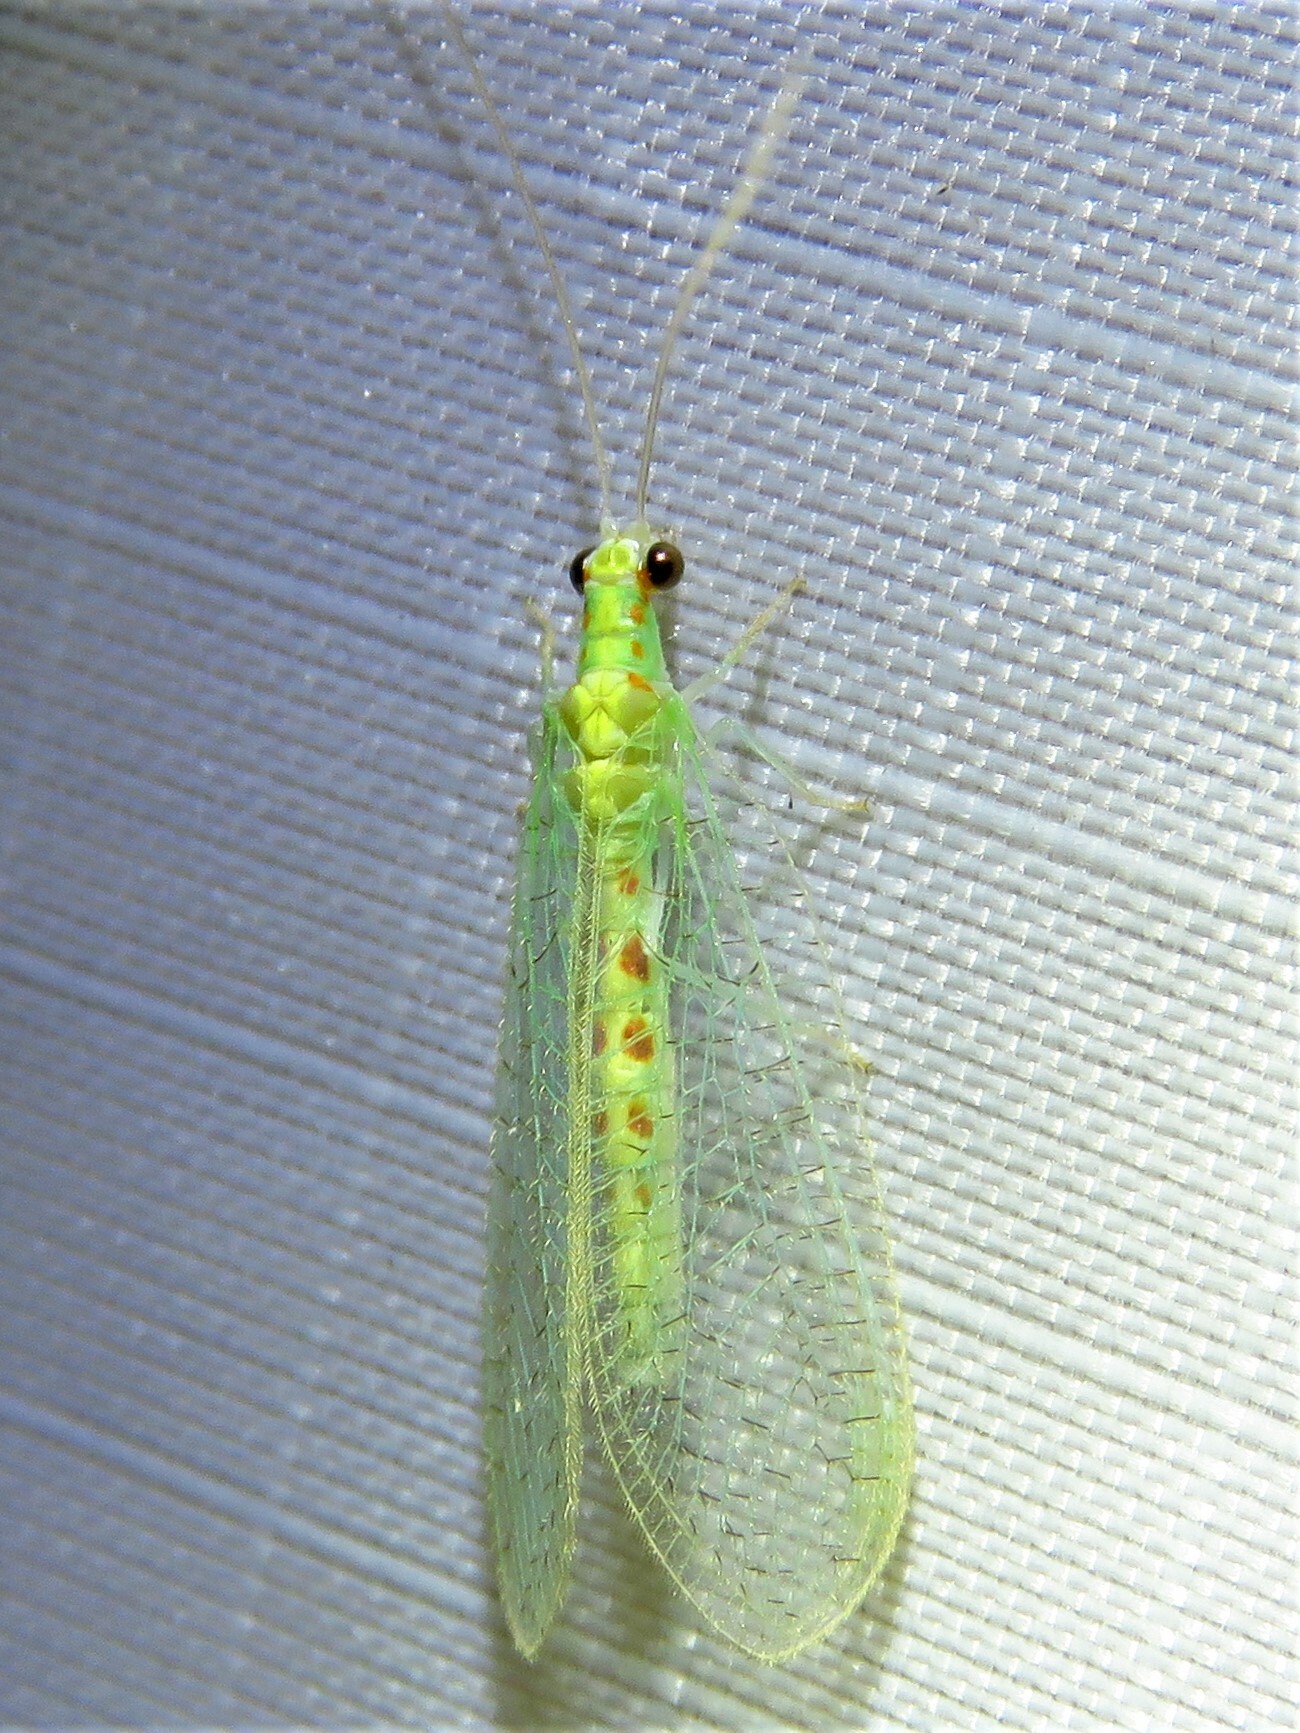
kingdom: Animalia
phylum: Arthropoda
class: Insecta
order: Neuroptera
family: Chrysopidae
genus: Chrysopa
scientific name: Chrysopa quadripunctata
